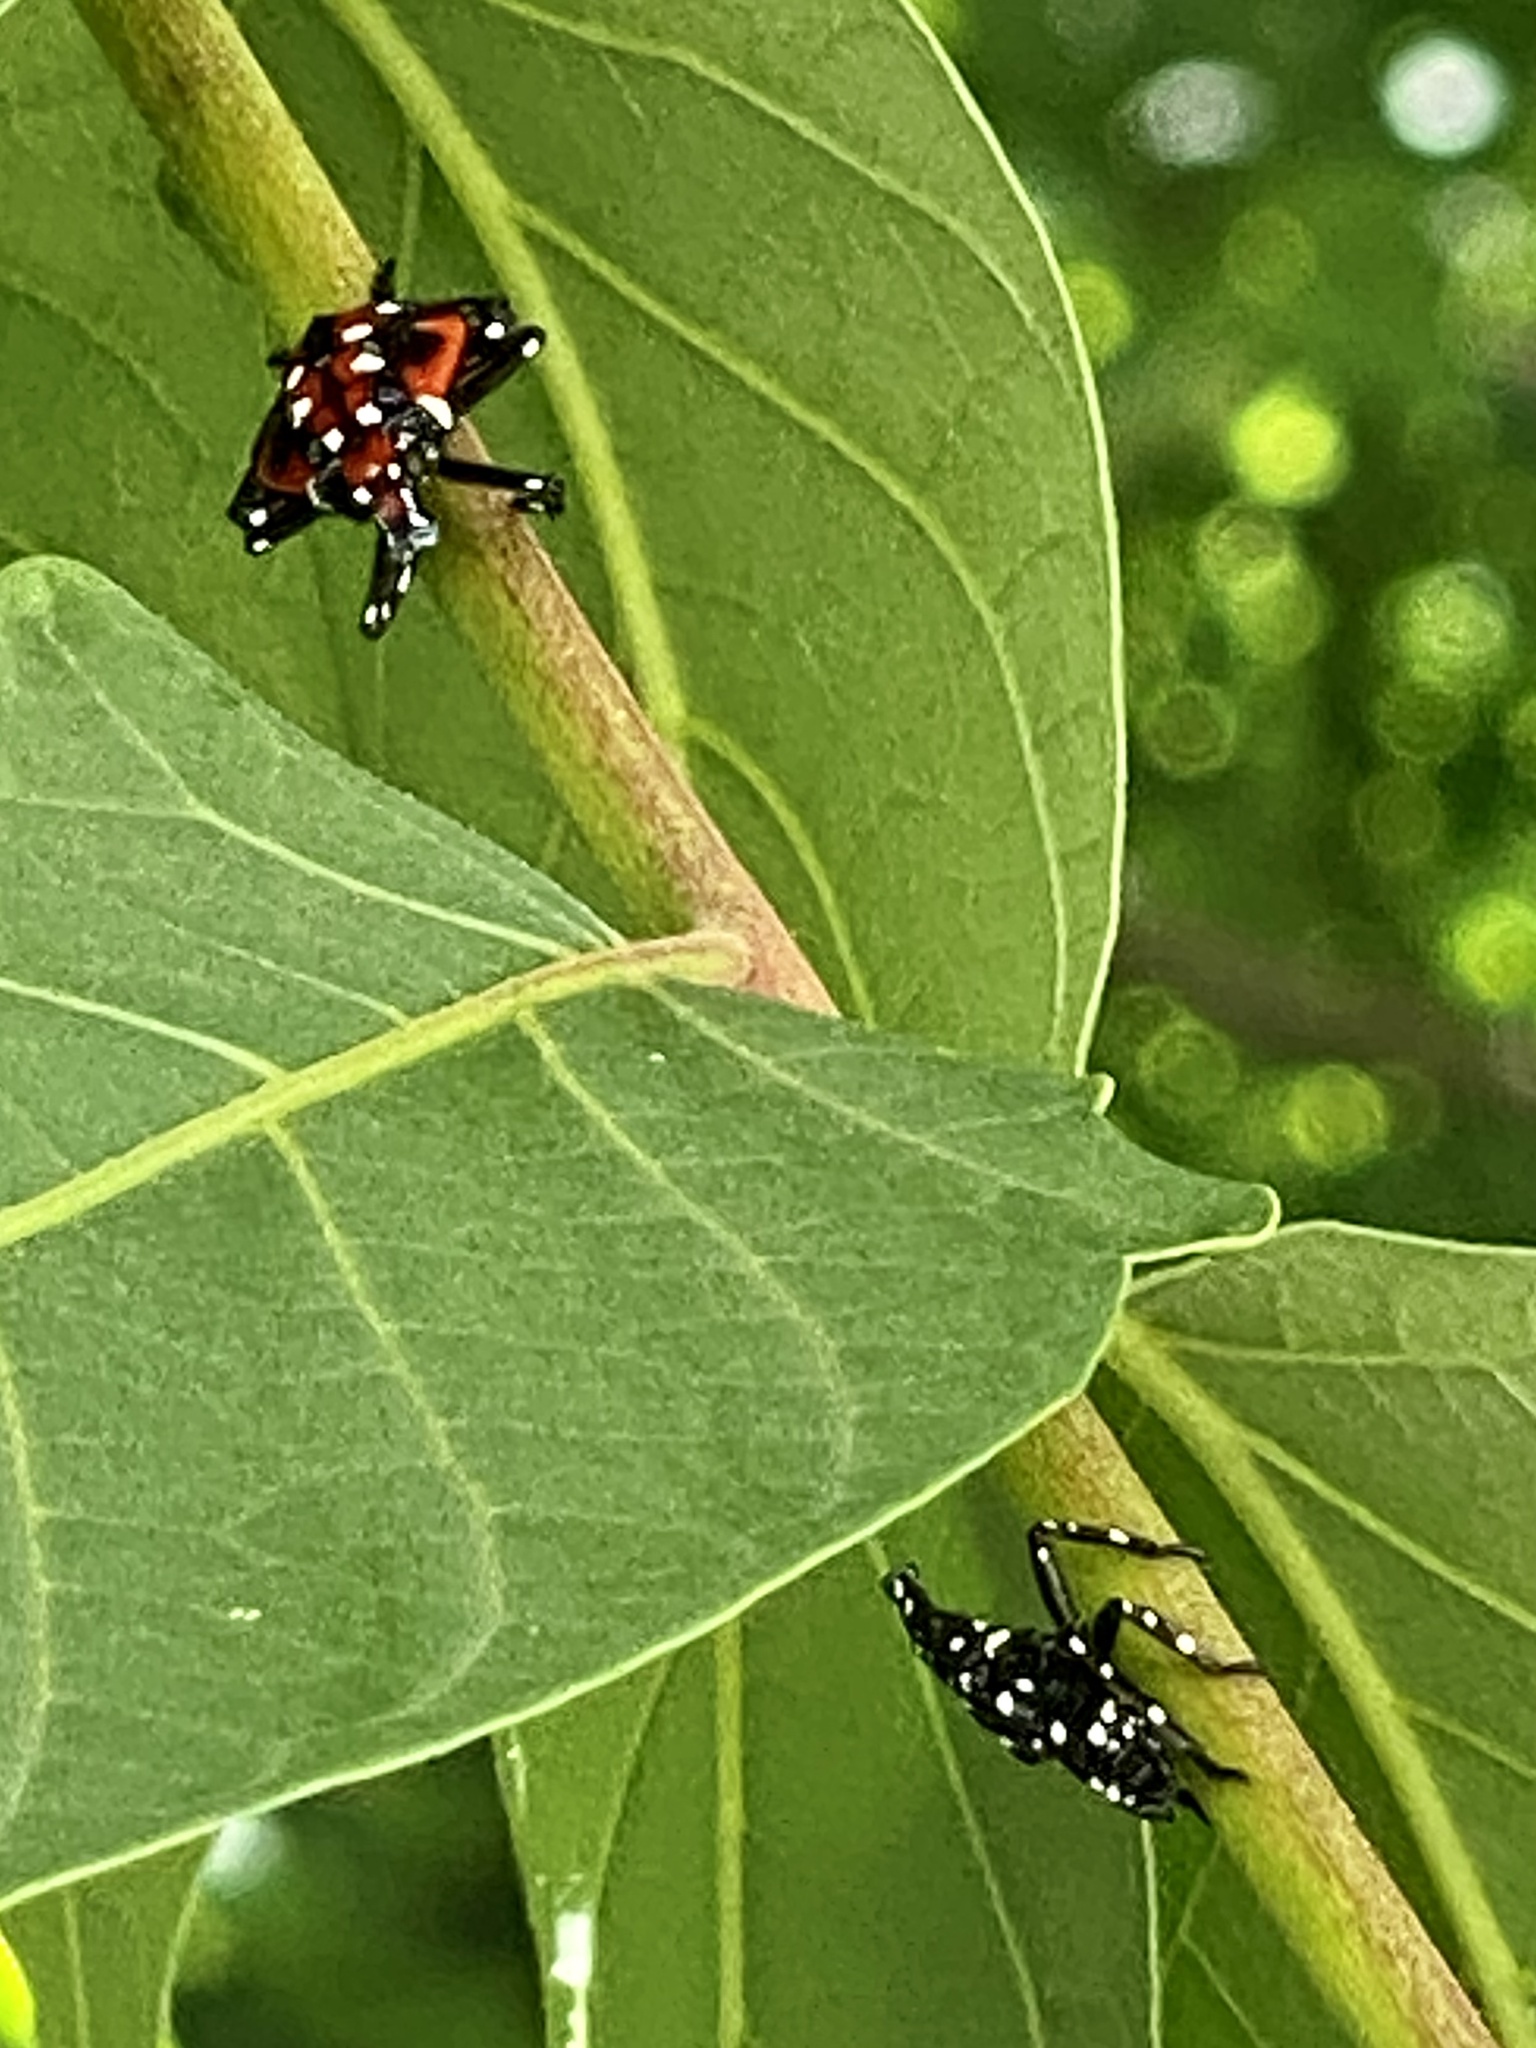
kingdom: Animalia
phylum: Arthropoda
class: Insecta
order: Hemiptera
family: Fulgoridae
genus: Lycorma
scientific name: Lycorma delicatula
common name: Spotted lanternfly
